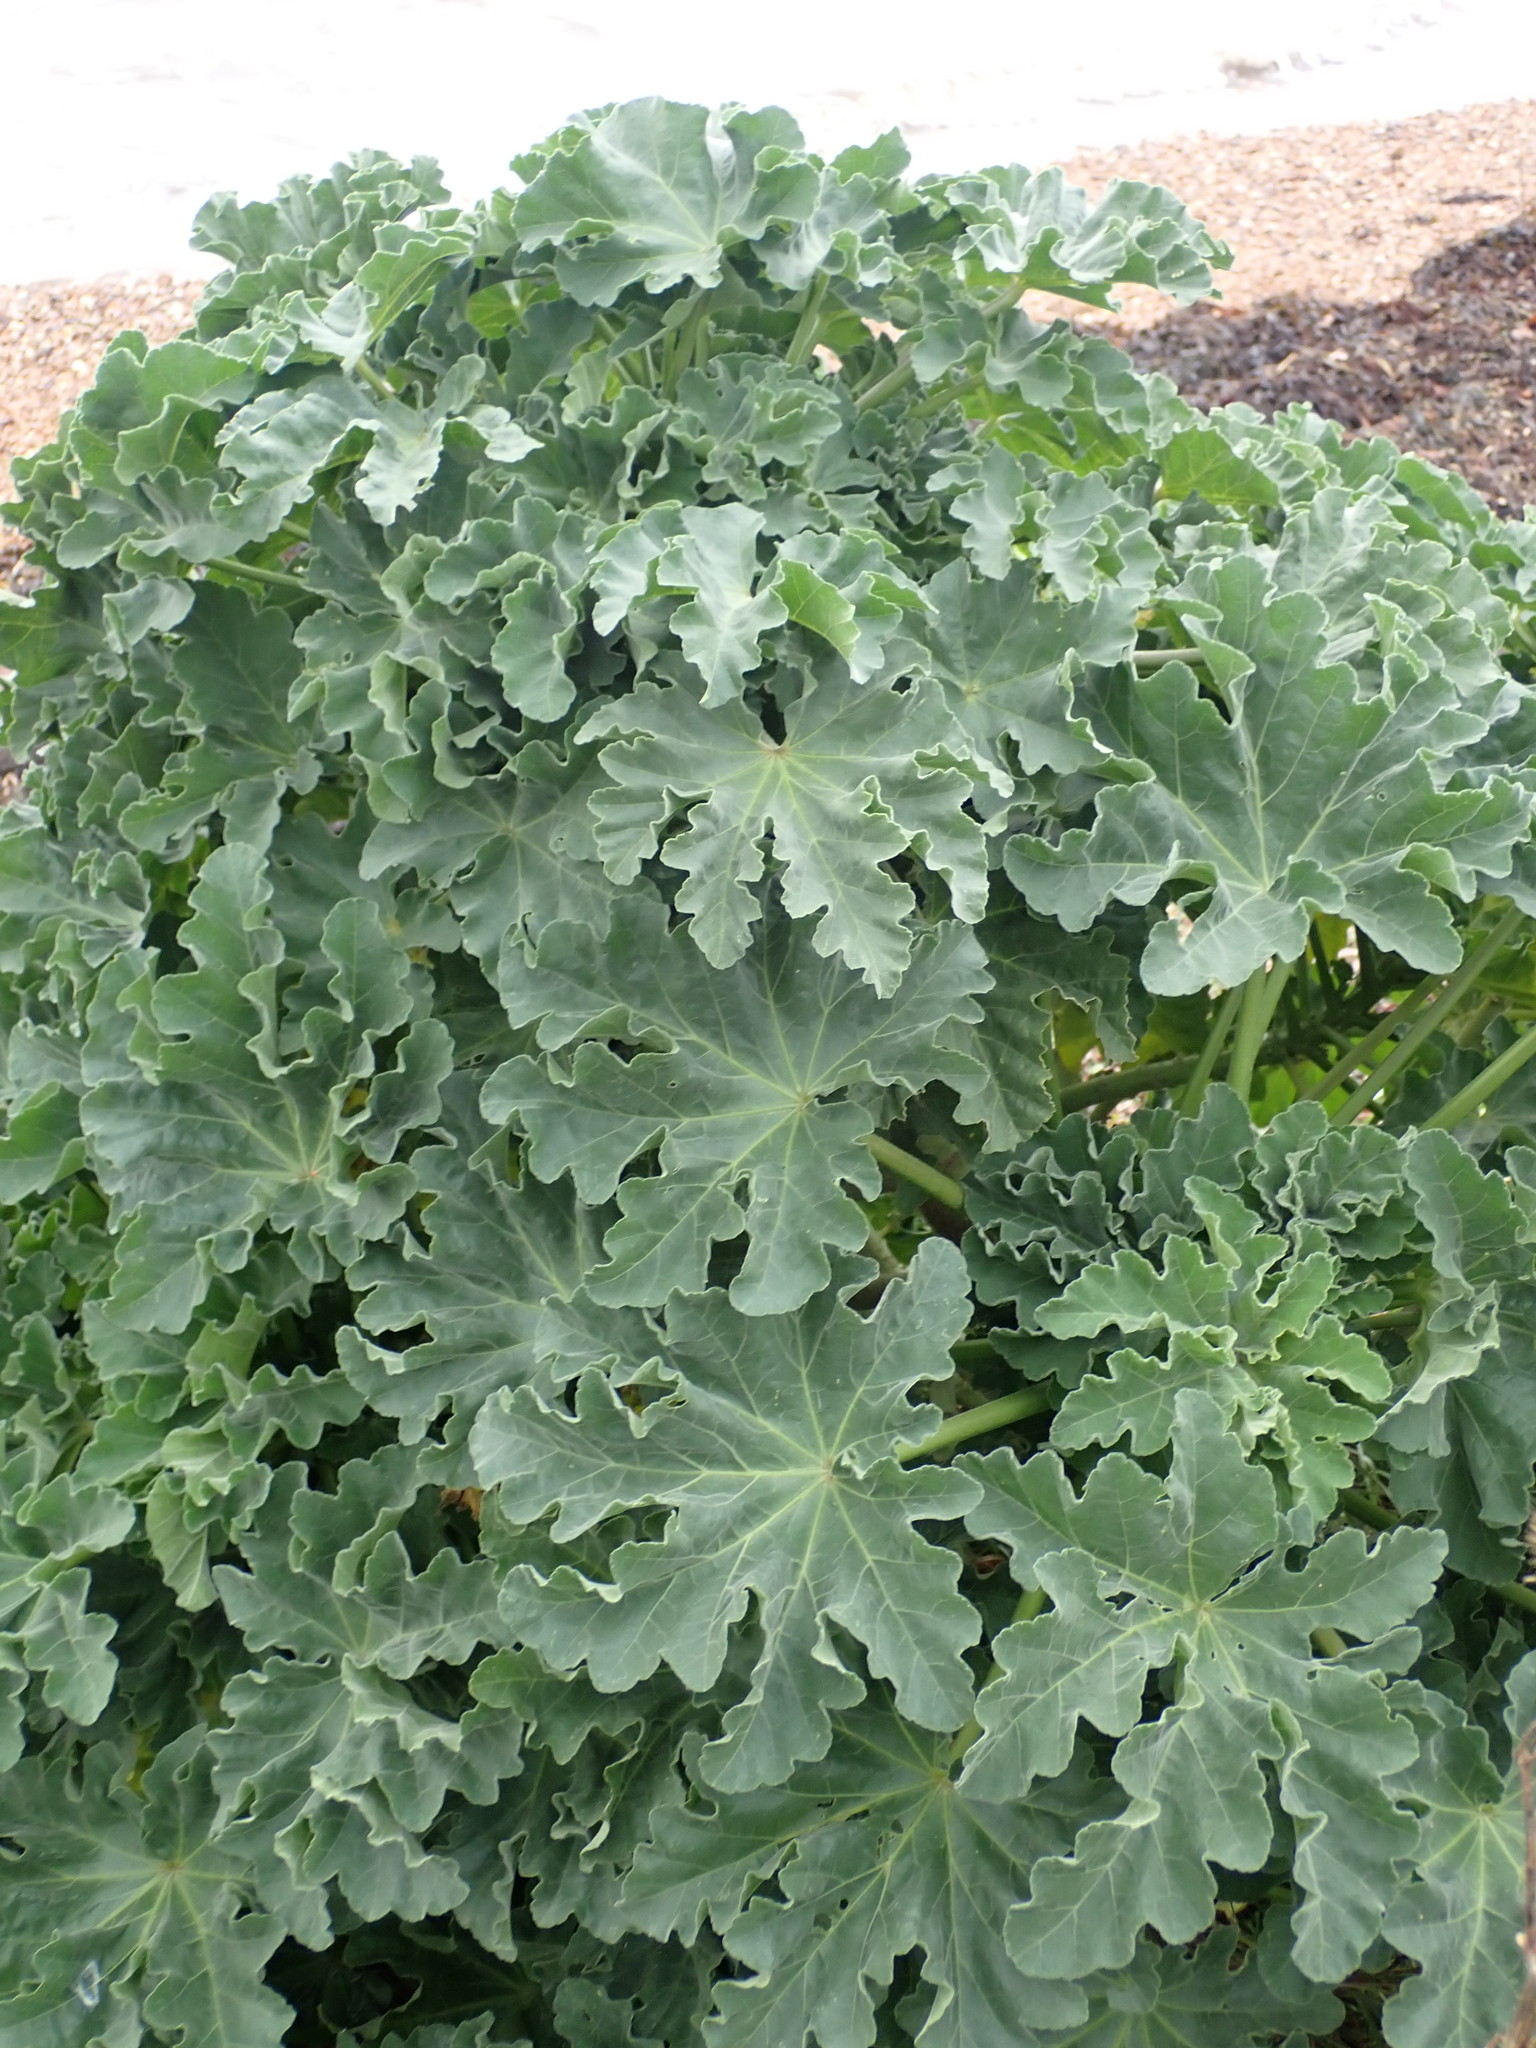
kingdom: Plantae
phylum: Tracheophyta
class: Magnoliopsida
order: Malvales
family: Malvaceae
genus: Malva
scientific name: Malva arborea
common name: Tree mallow
